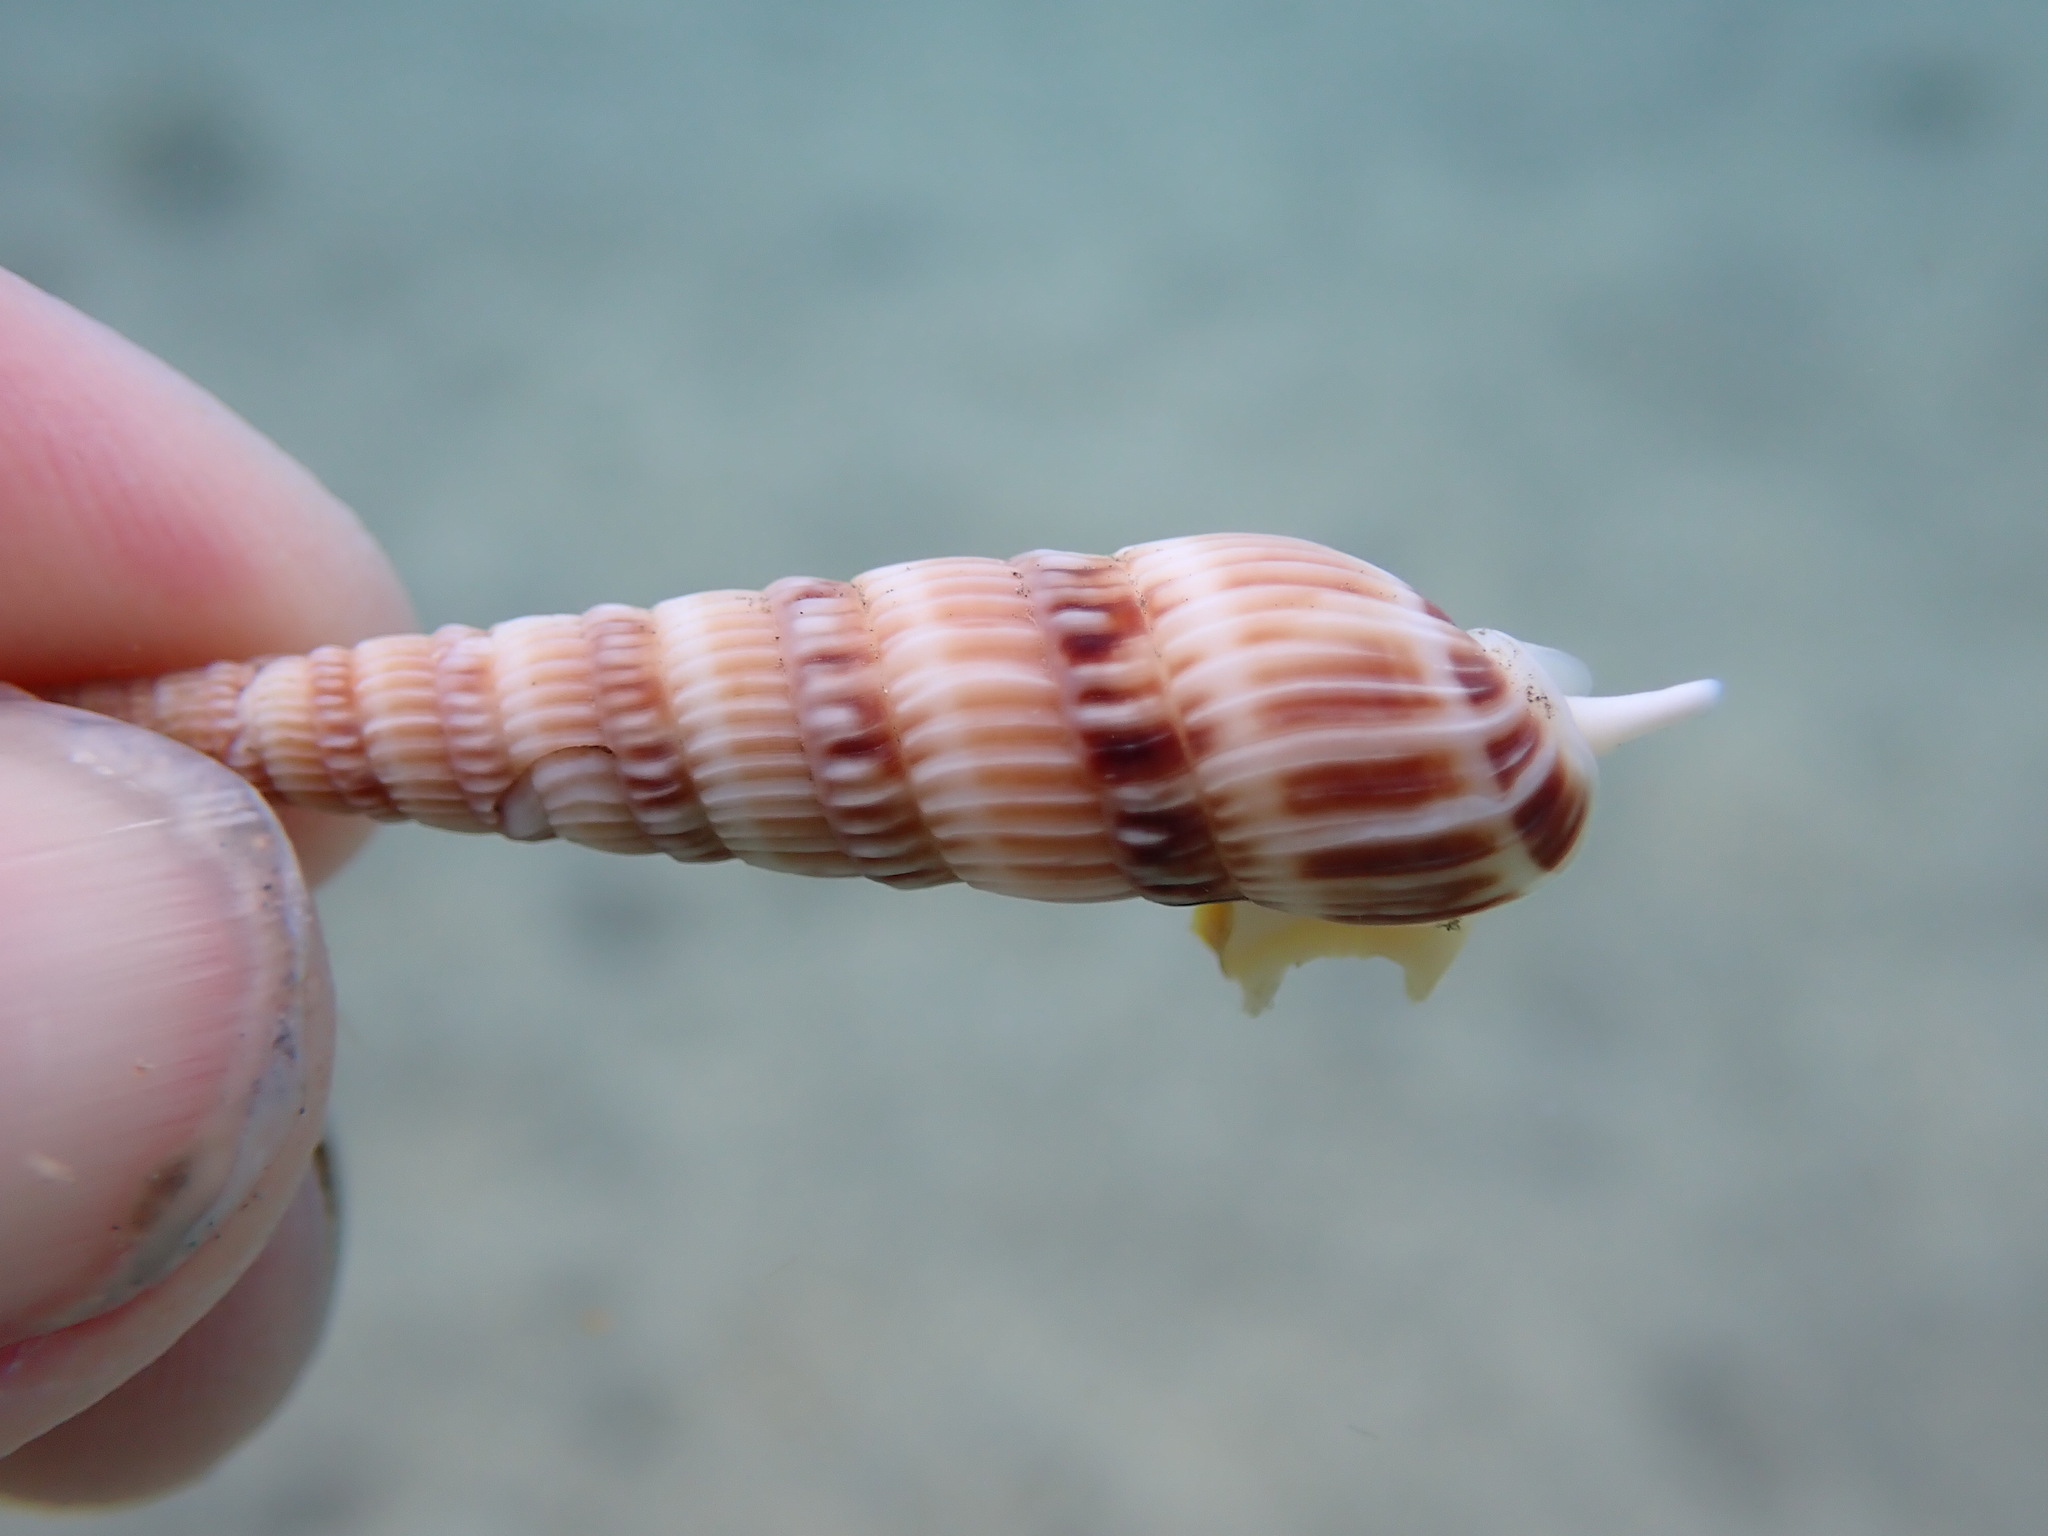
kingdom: Animalia
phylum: Mollusca
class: Gastropoda
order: Neogastropoda
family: Terebridae
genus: Oxymeris
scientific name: Oxymeris gouldi
